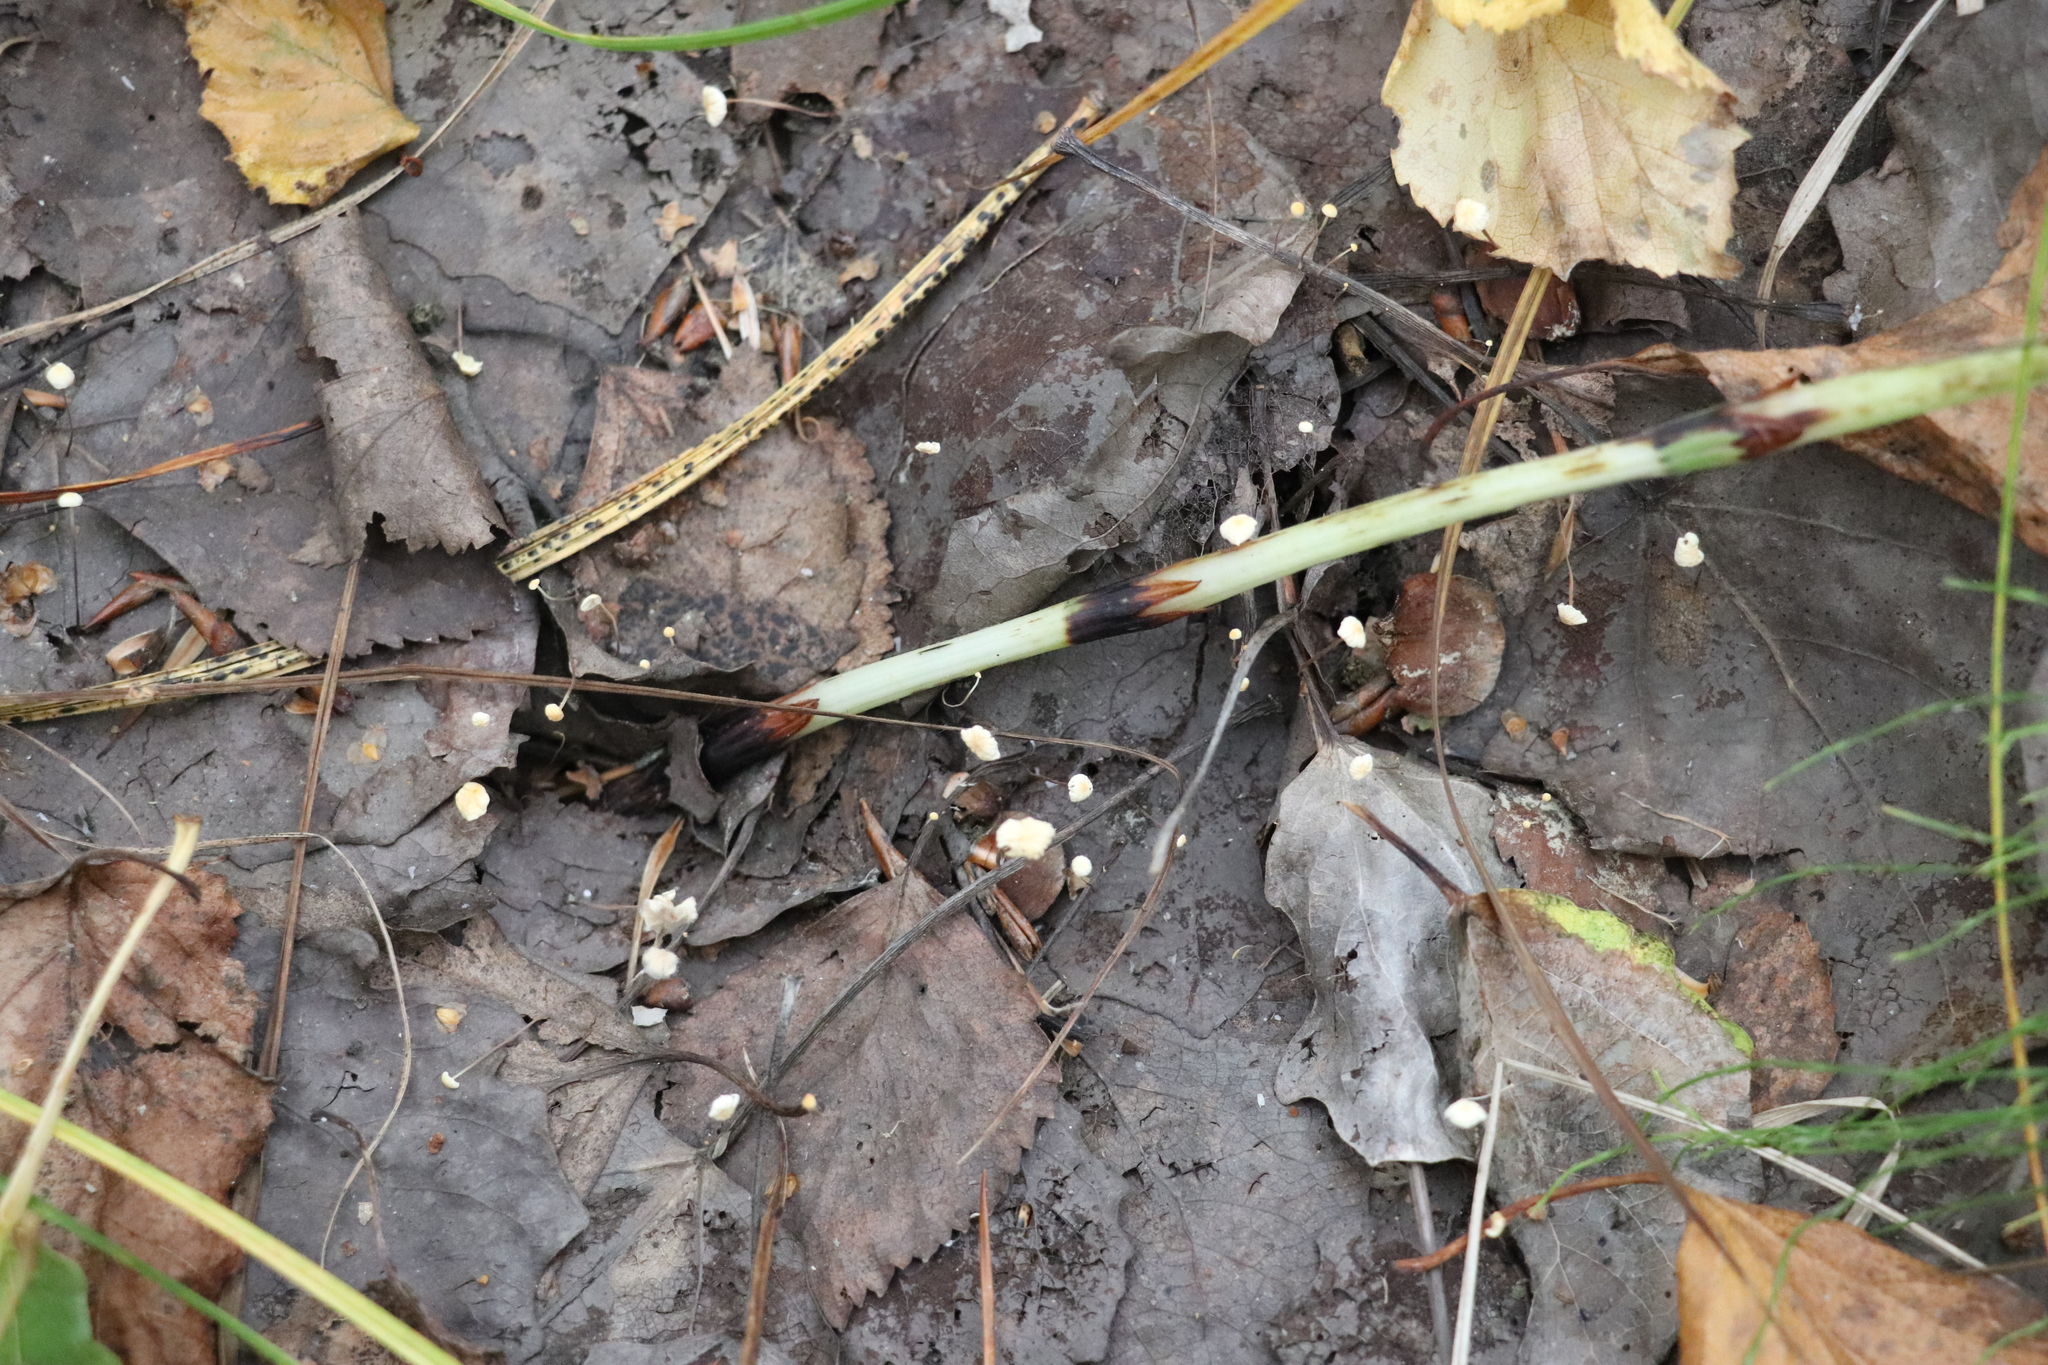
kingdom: Fungi
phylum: Basidiomycota
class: Agaricomycetes
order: Agaricales
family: Physalacriaceae
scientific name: Physalacriaceae
